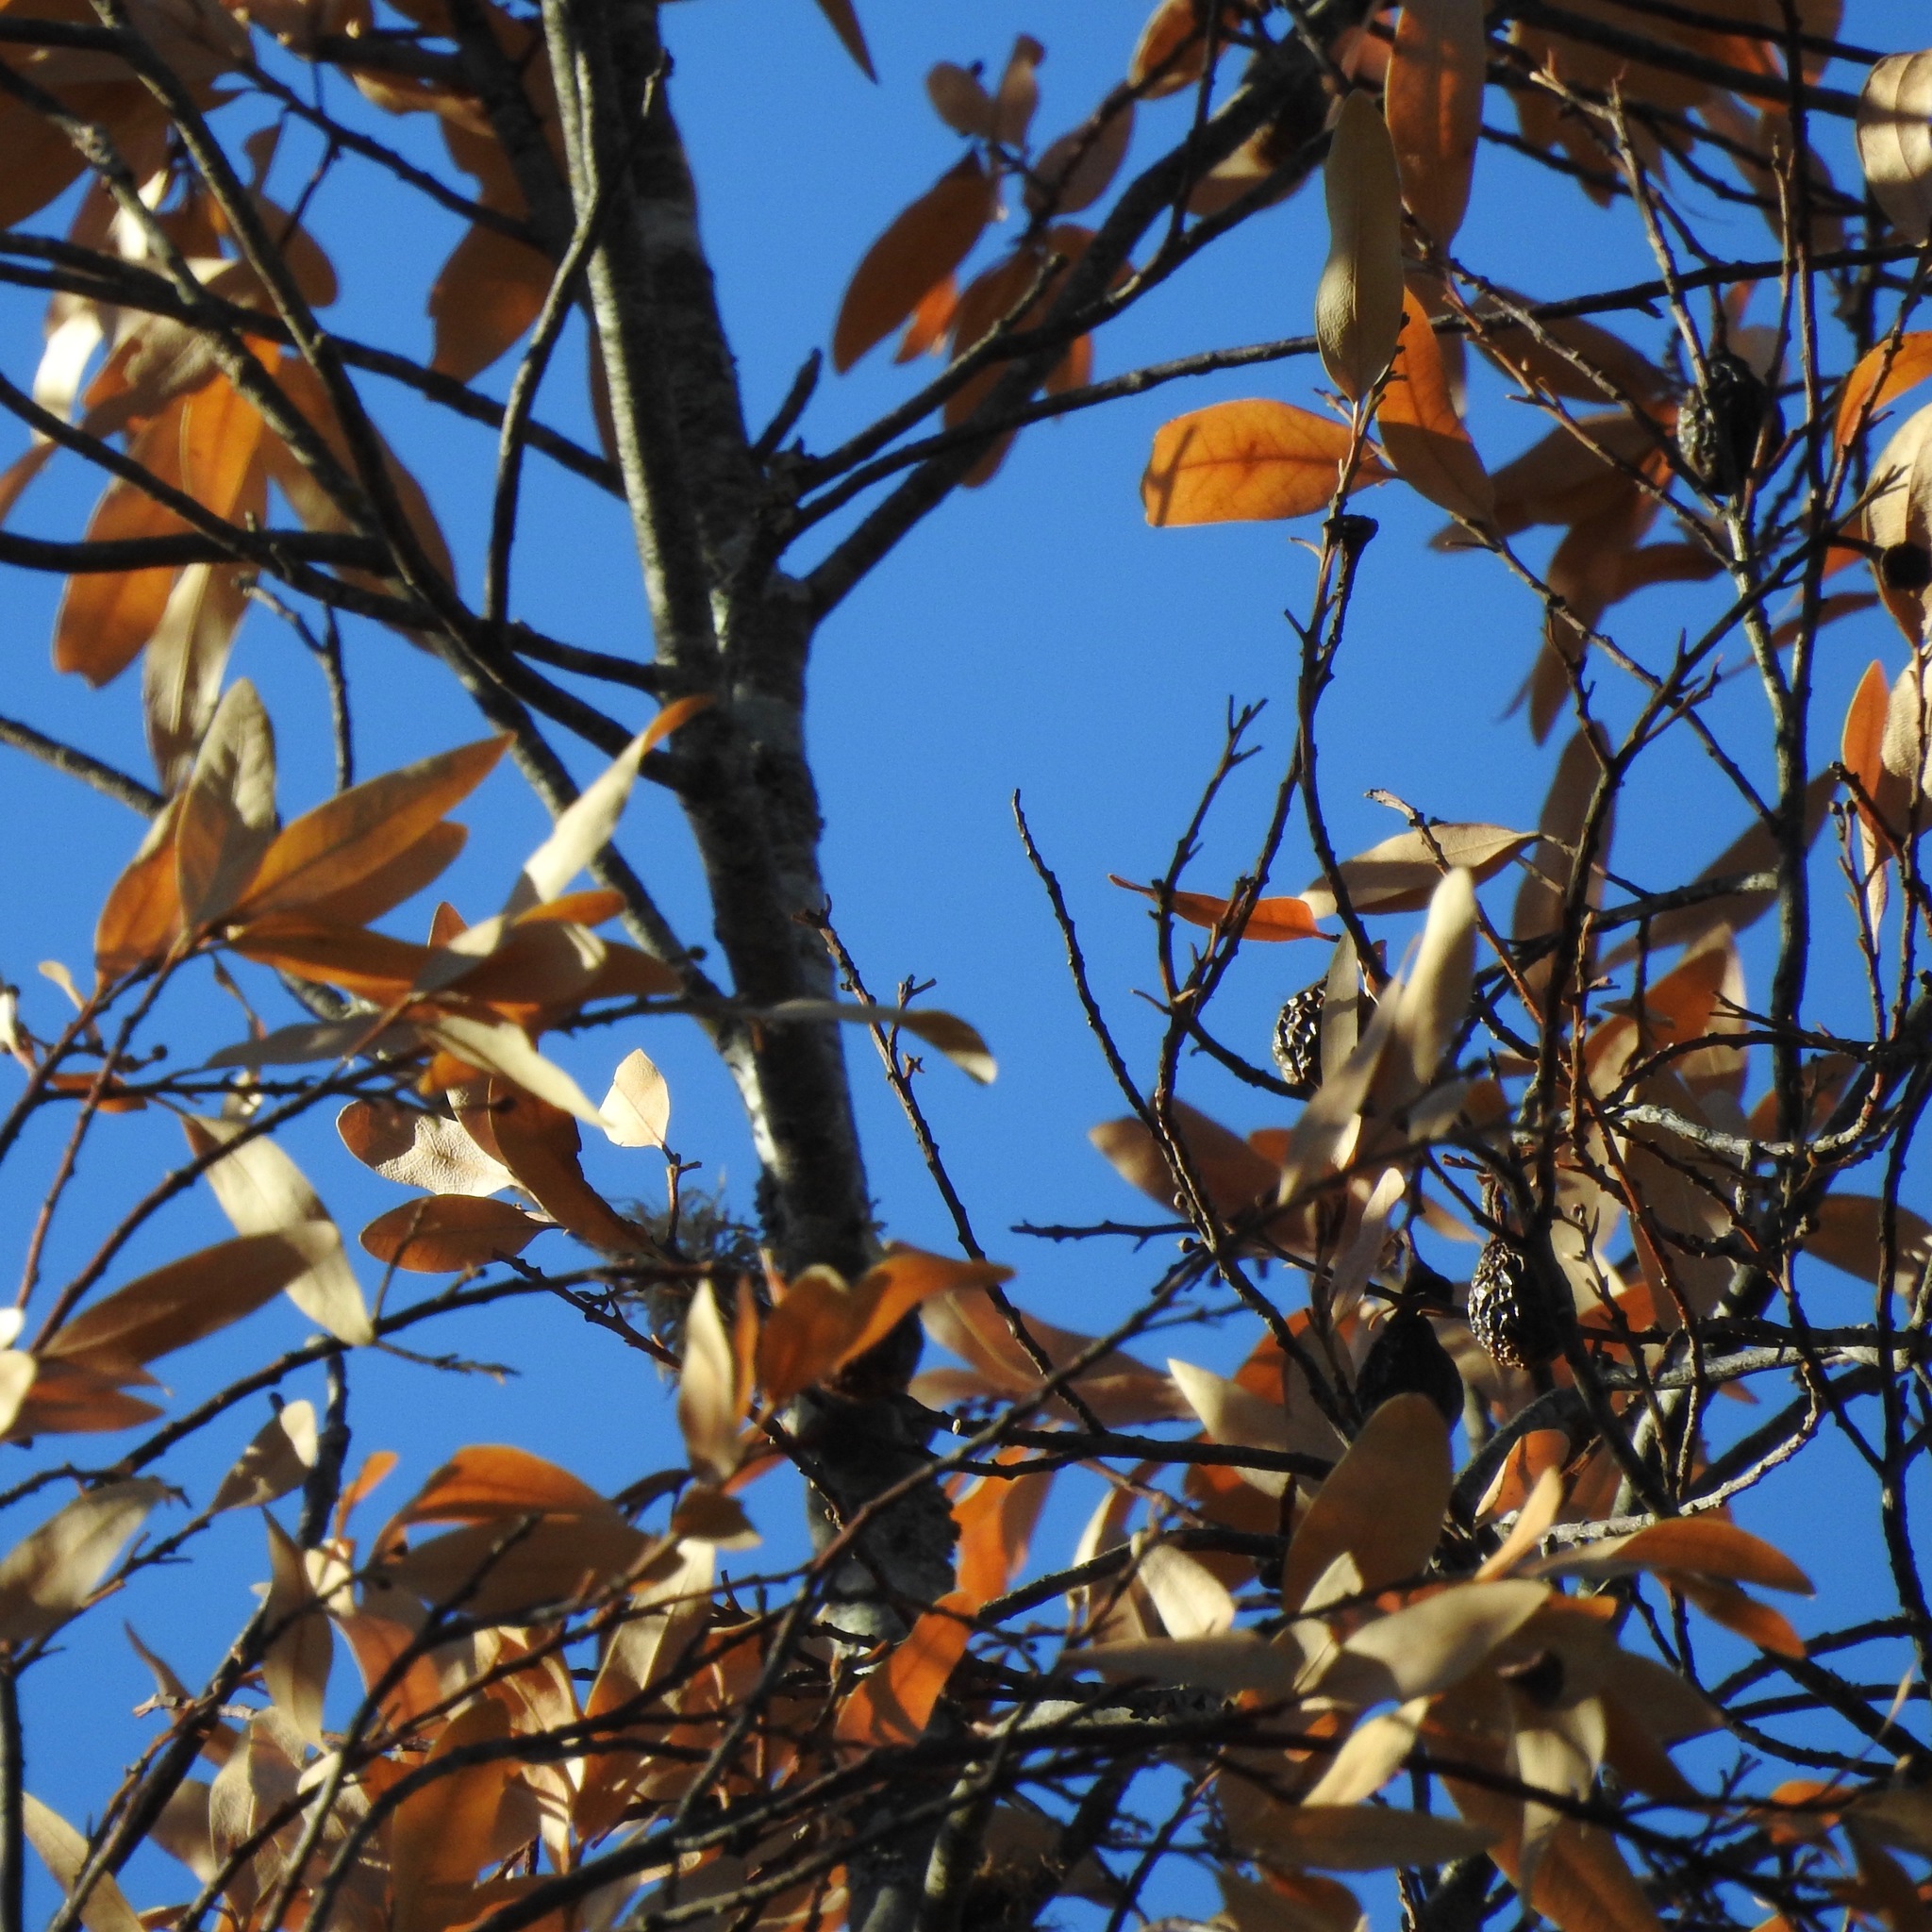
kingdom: Plantae
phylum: Tracheophyta
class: Magnoliopsida
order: Laurales
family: Lauraceae
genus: Umbellularia
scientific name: Umbellularia californica
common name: California bay
